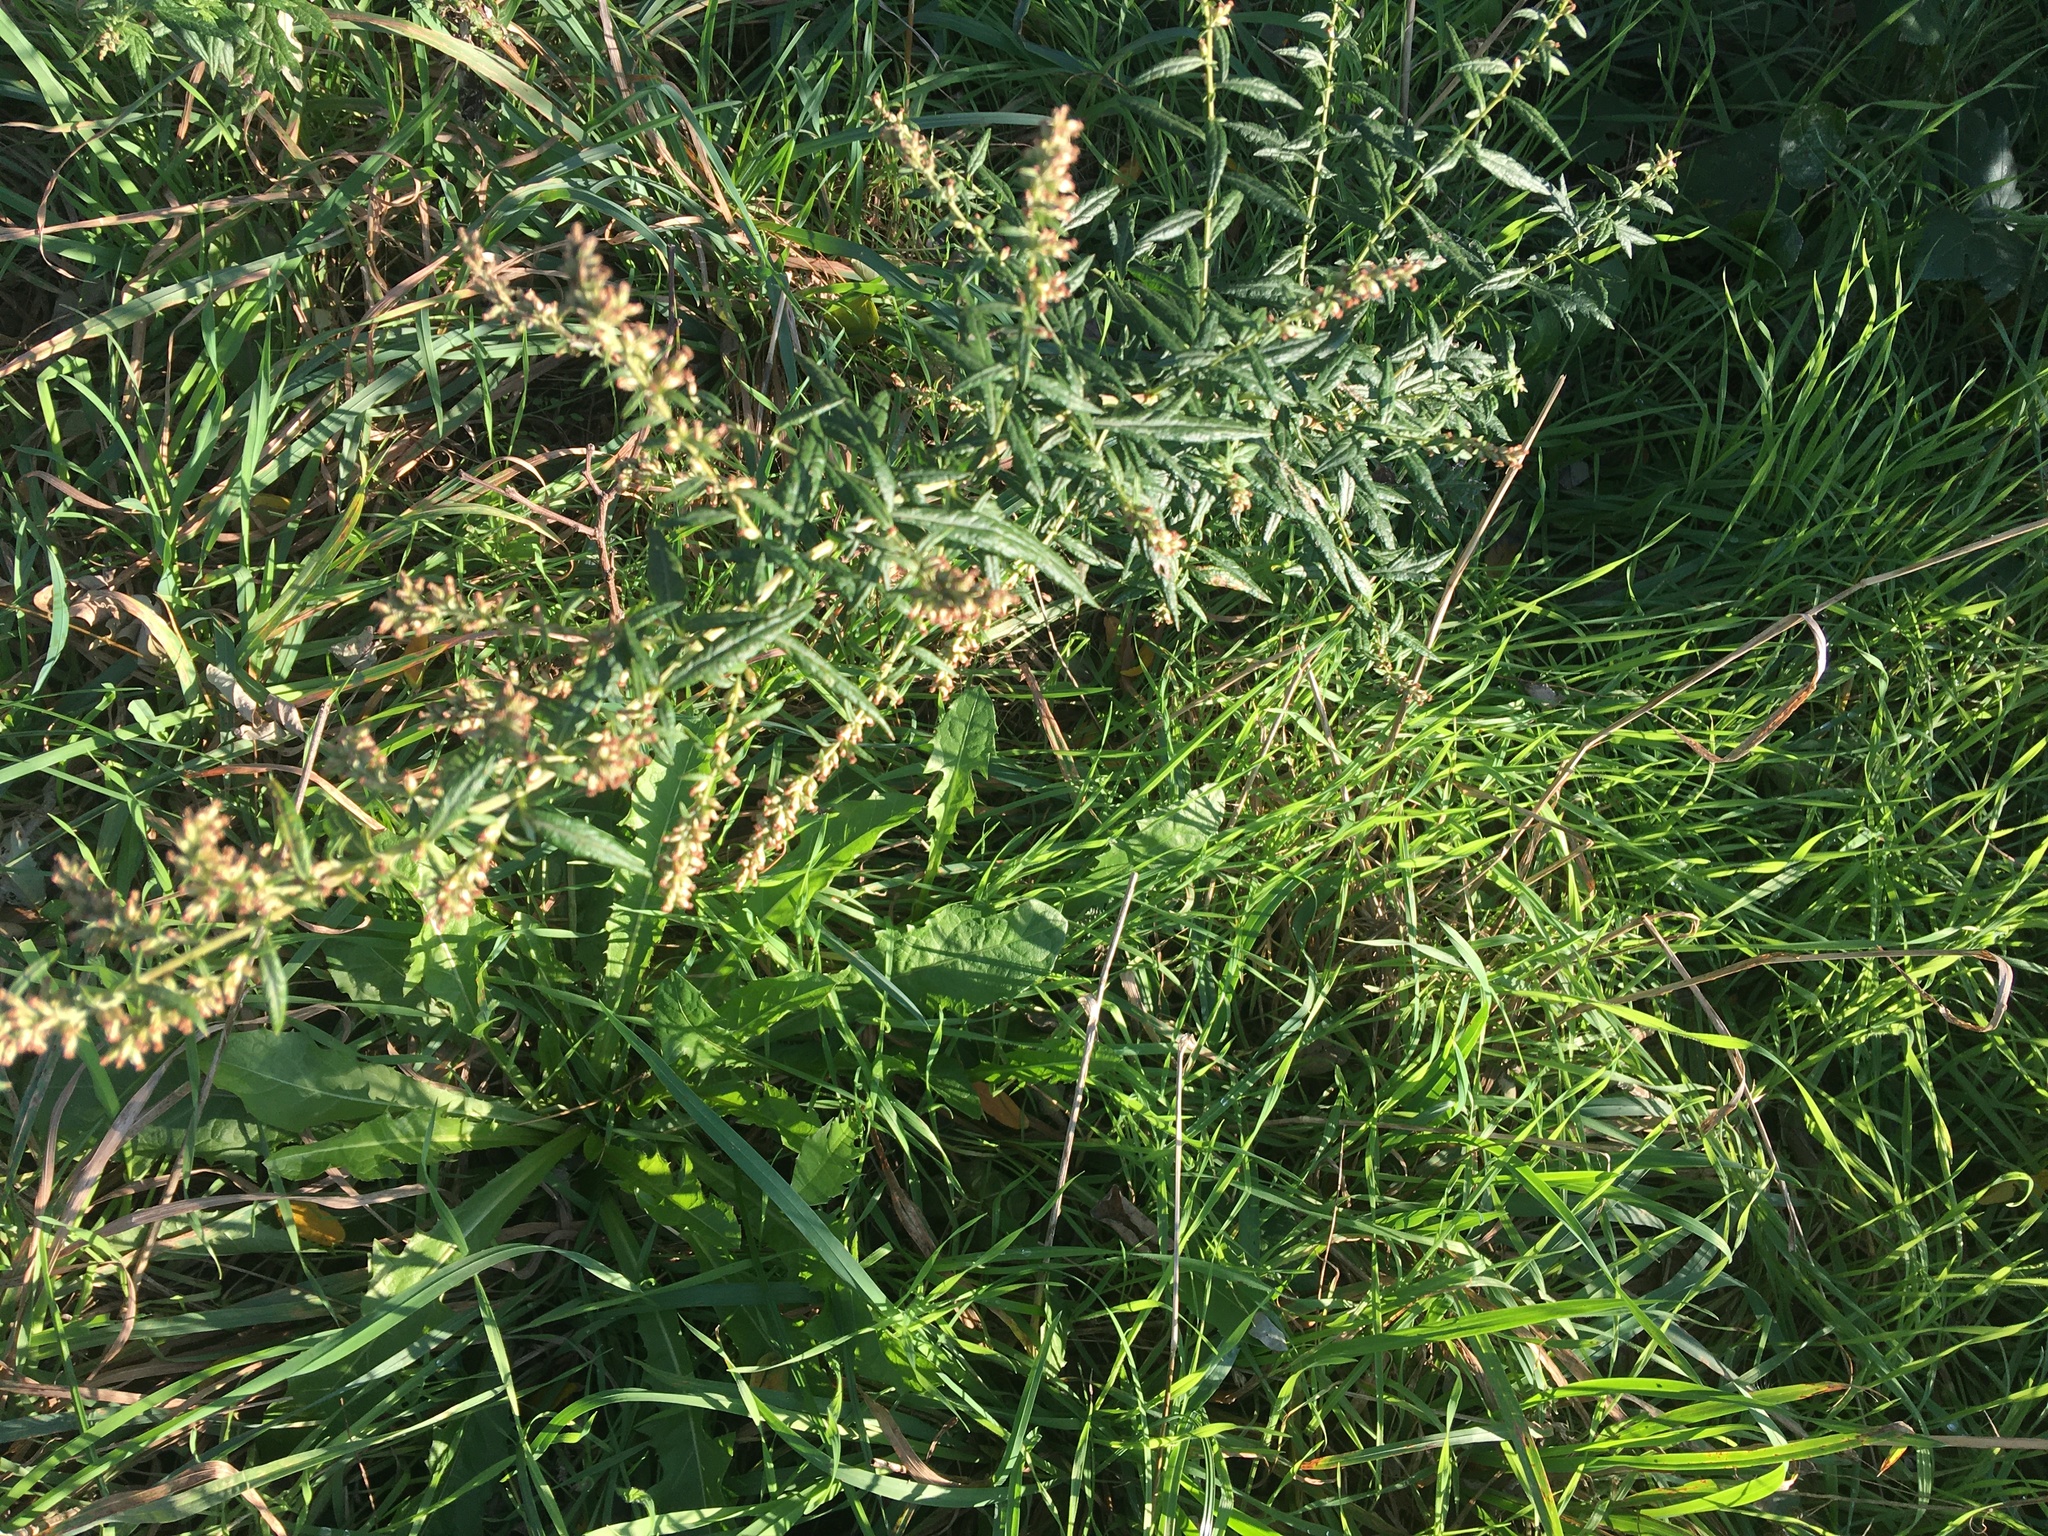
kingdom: Plantae
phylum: Tracheophyta
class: Magnoliopsida
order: Asterales
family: Asteraceae
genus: Artemisia
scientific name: Artemisia vulgaris
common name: Mugwort
